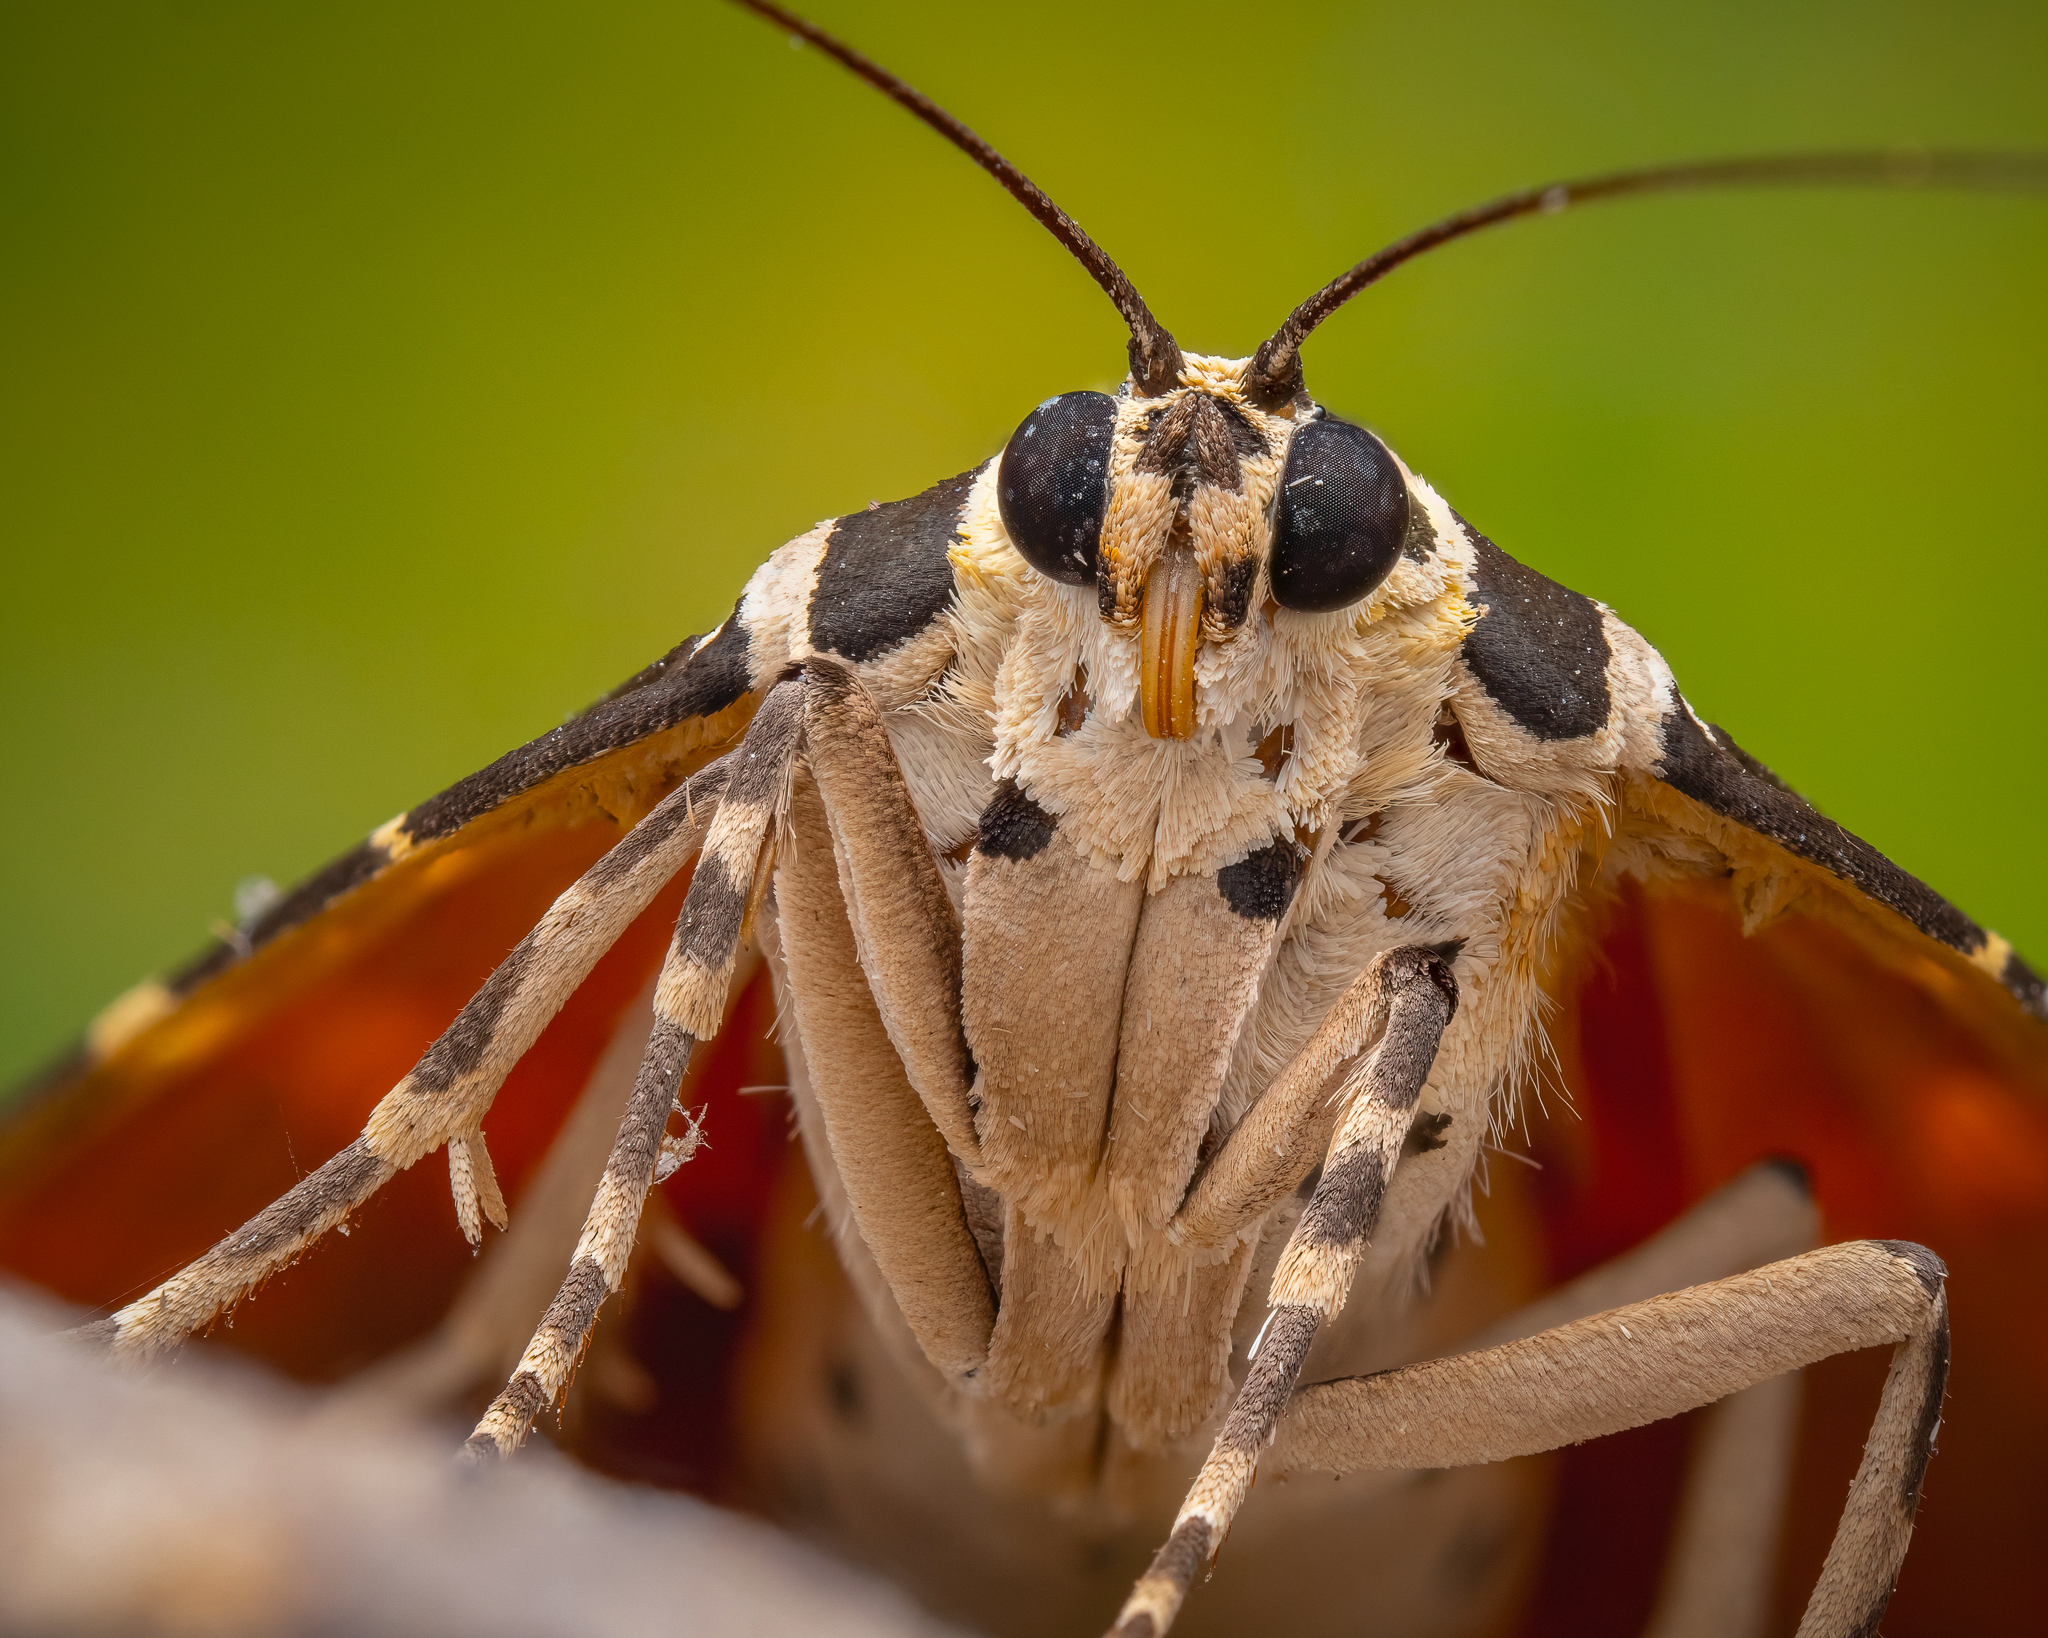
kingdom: Animalia
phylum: Arthropoda
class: Insecta
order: Lepidoptera
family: Erebidae
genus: Euplagia
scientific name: Euplagia quadripunctaria
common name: Jersey tiger
